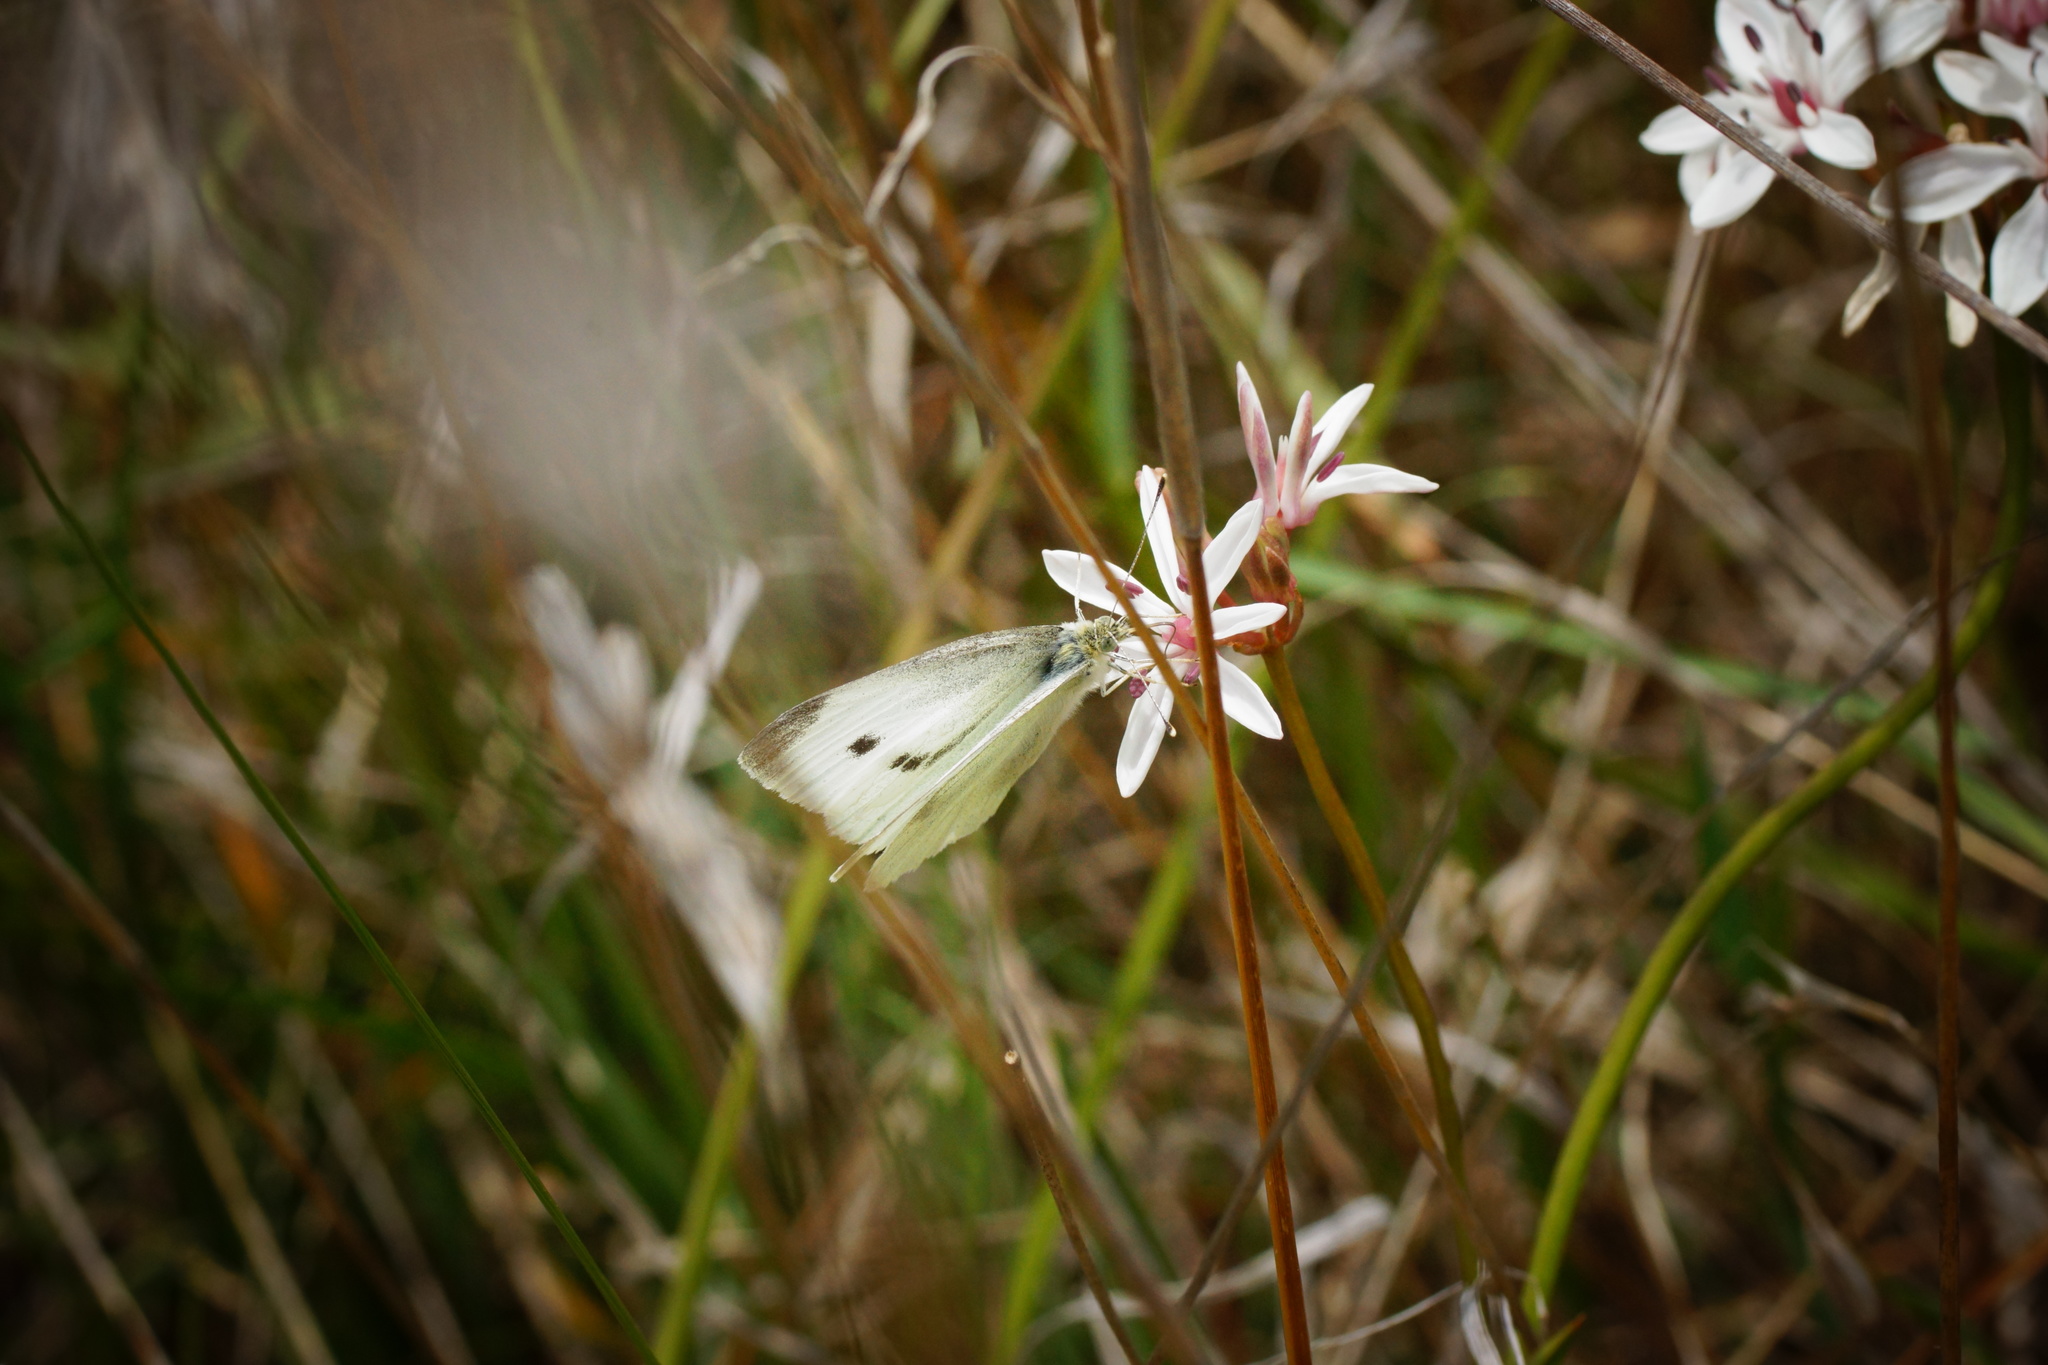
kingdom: Animalia
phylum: Arthropoda
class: Insecta
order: Lepidoptera
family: Pieridae
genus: Pieris
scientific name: Pieris rapae
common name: Small white
